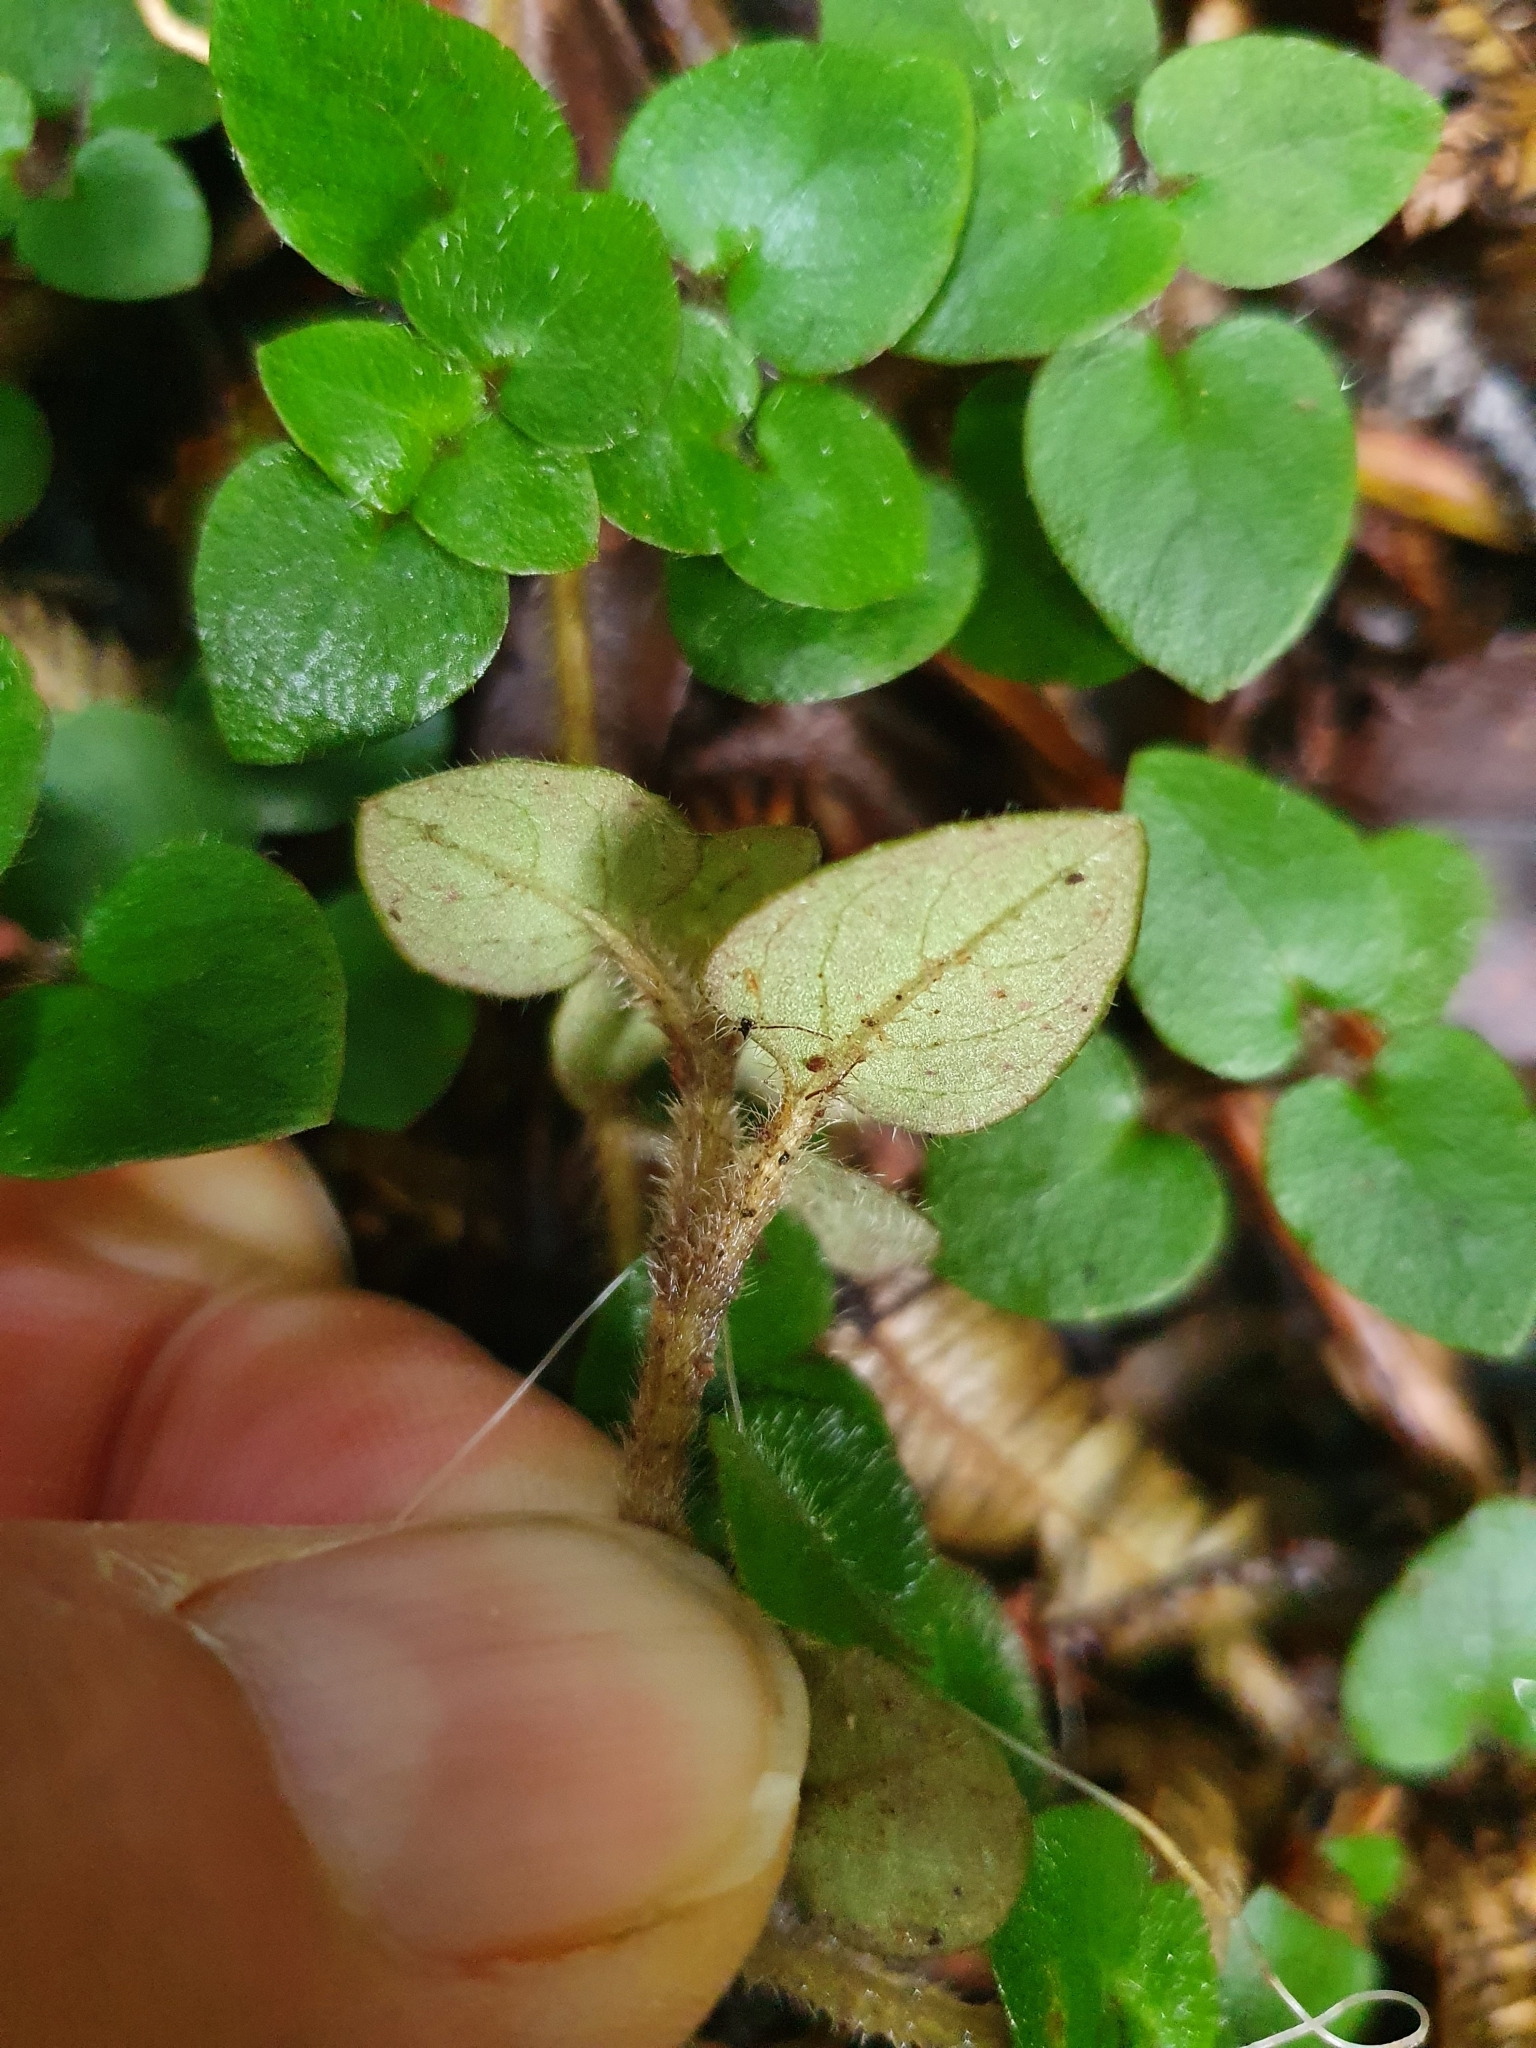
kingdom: Plantae
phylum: Tracheophyta
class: Magnoliopsida
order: Gentianales
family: Rubiaceae
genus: Nertera
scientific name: Nertera villosa
